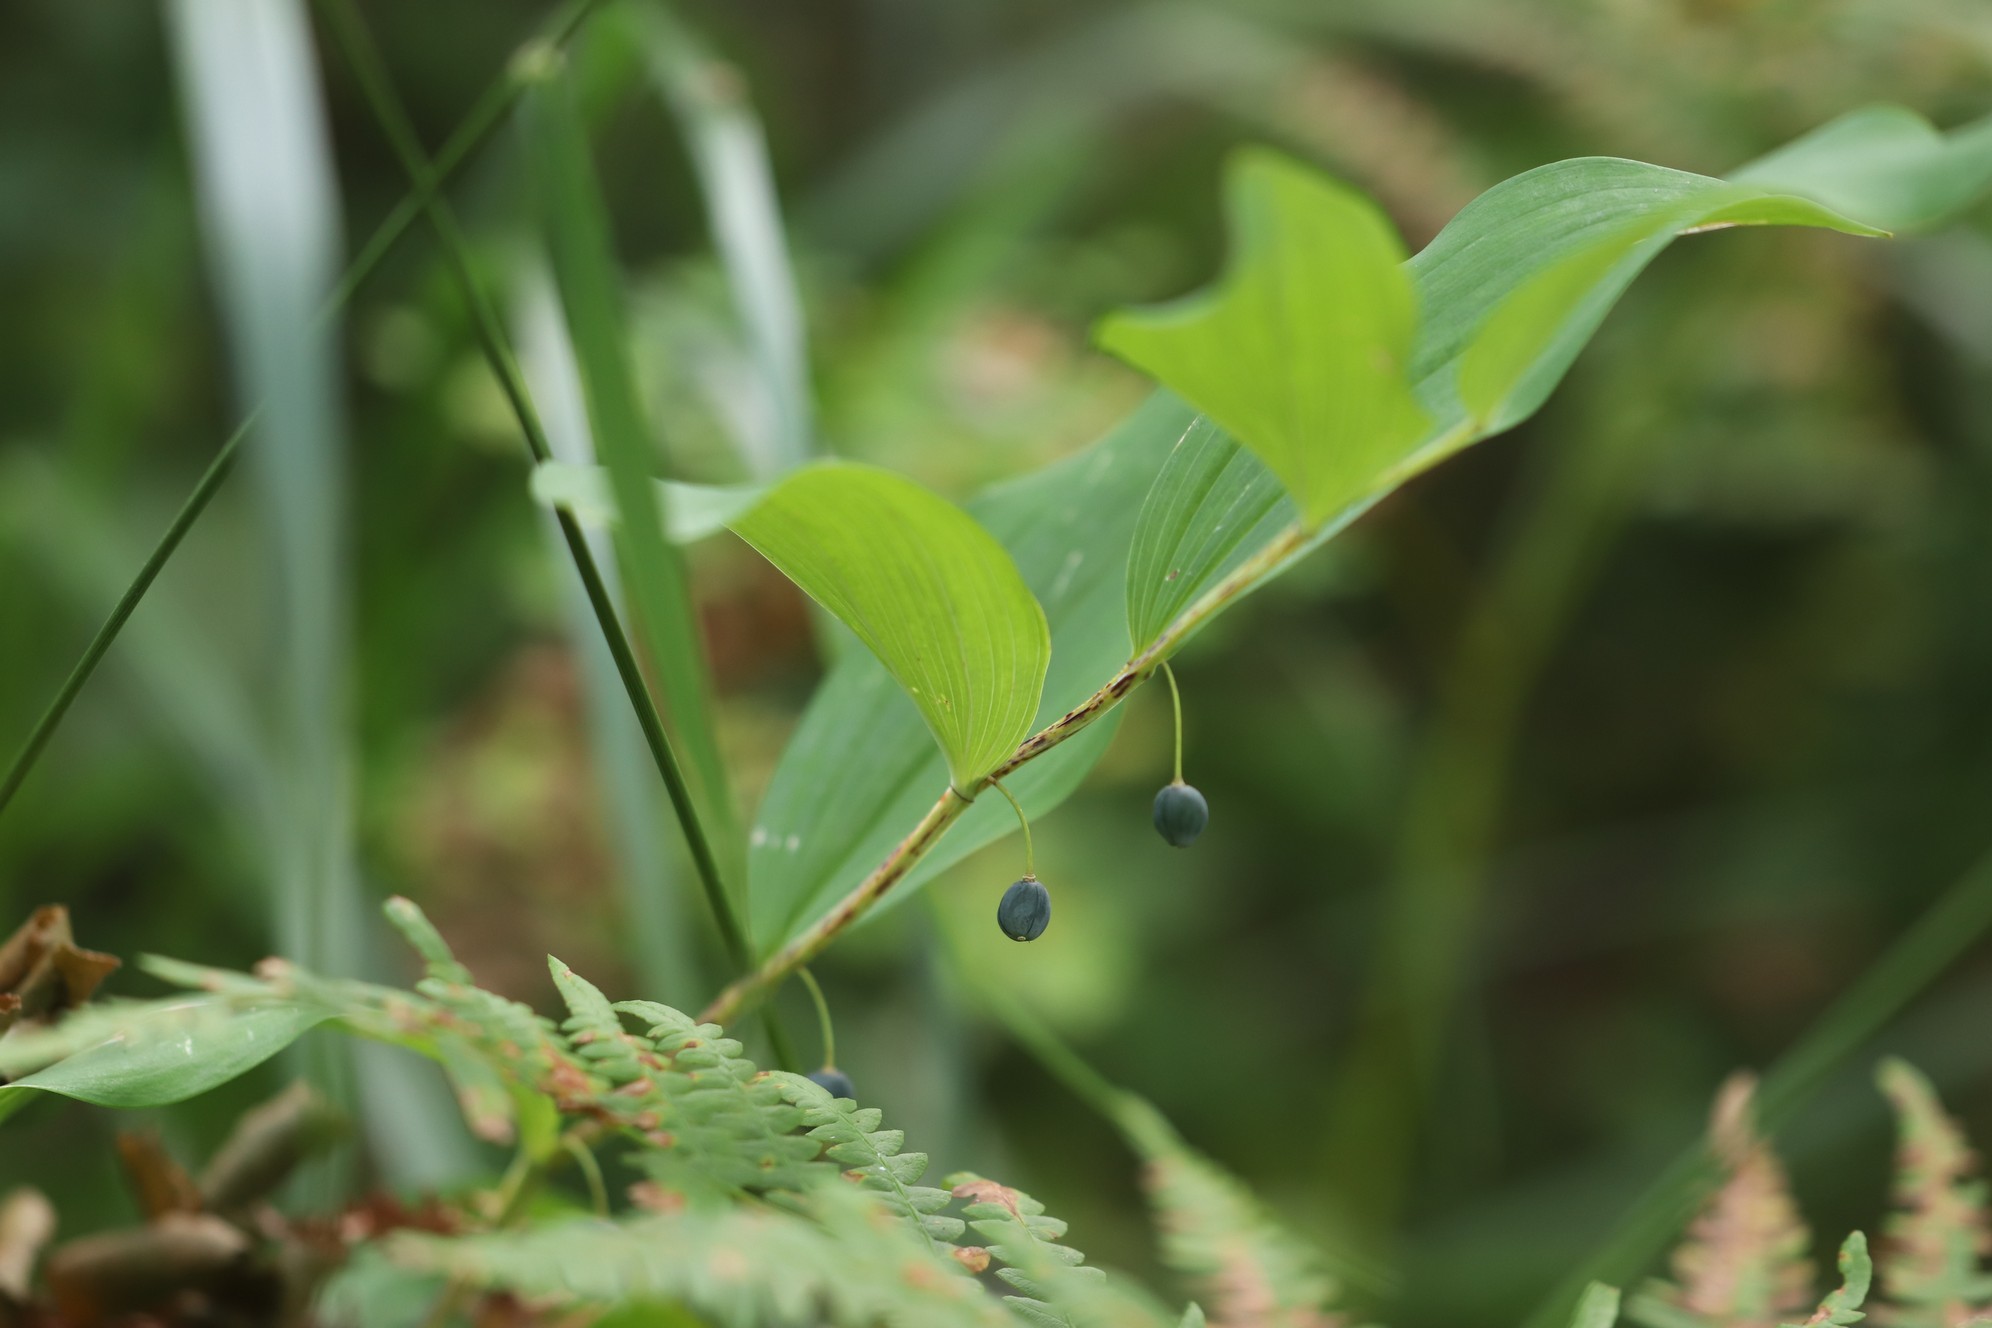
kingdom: Plantae
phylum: Tracheophyta
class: Liliopsida
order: Asparagales
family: Asparagaceae
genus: Polygonatum
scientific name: Polygonatum odoratum
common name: Angular solomon's-seal
